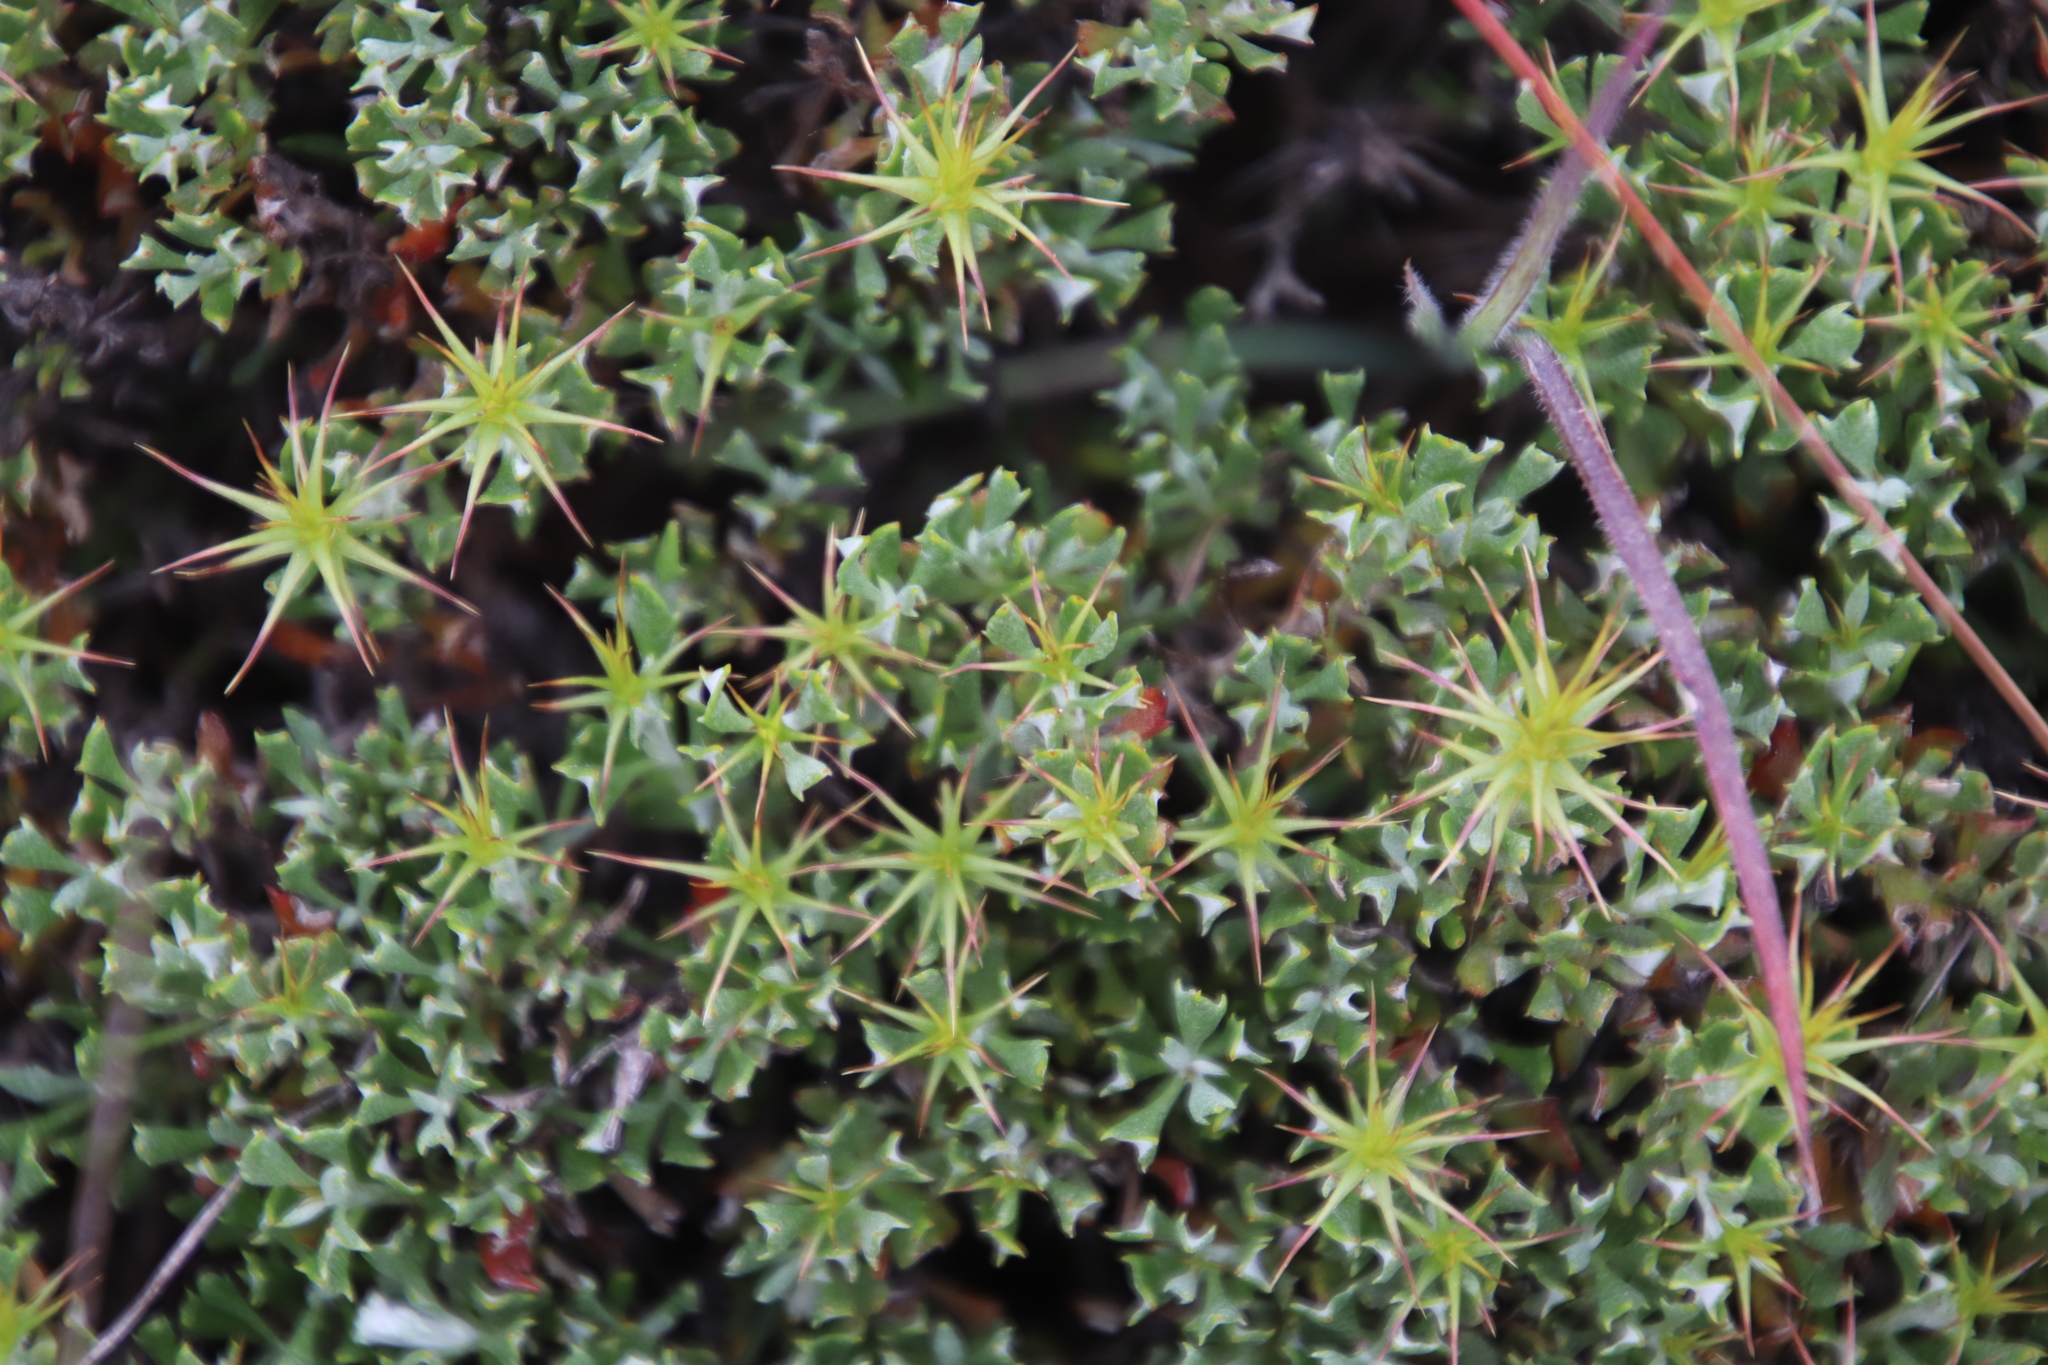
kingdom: Plantae
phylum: Tracheophyta
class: Magnoliopsida
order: Asterales
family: Asteraceae
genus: Macledium
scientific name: Macledium spinosum
